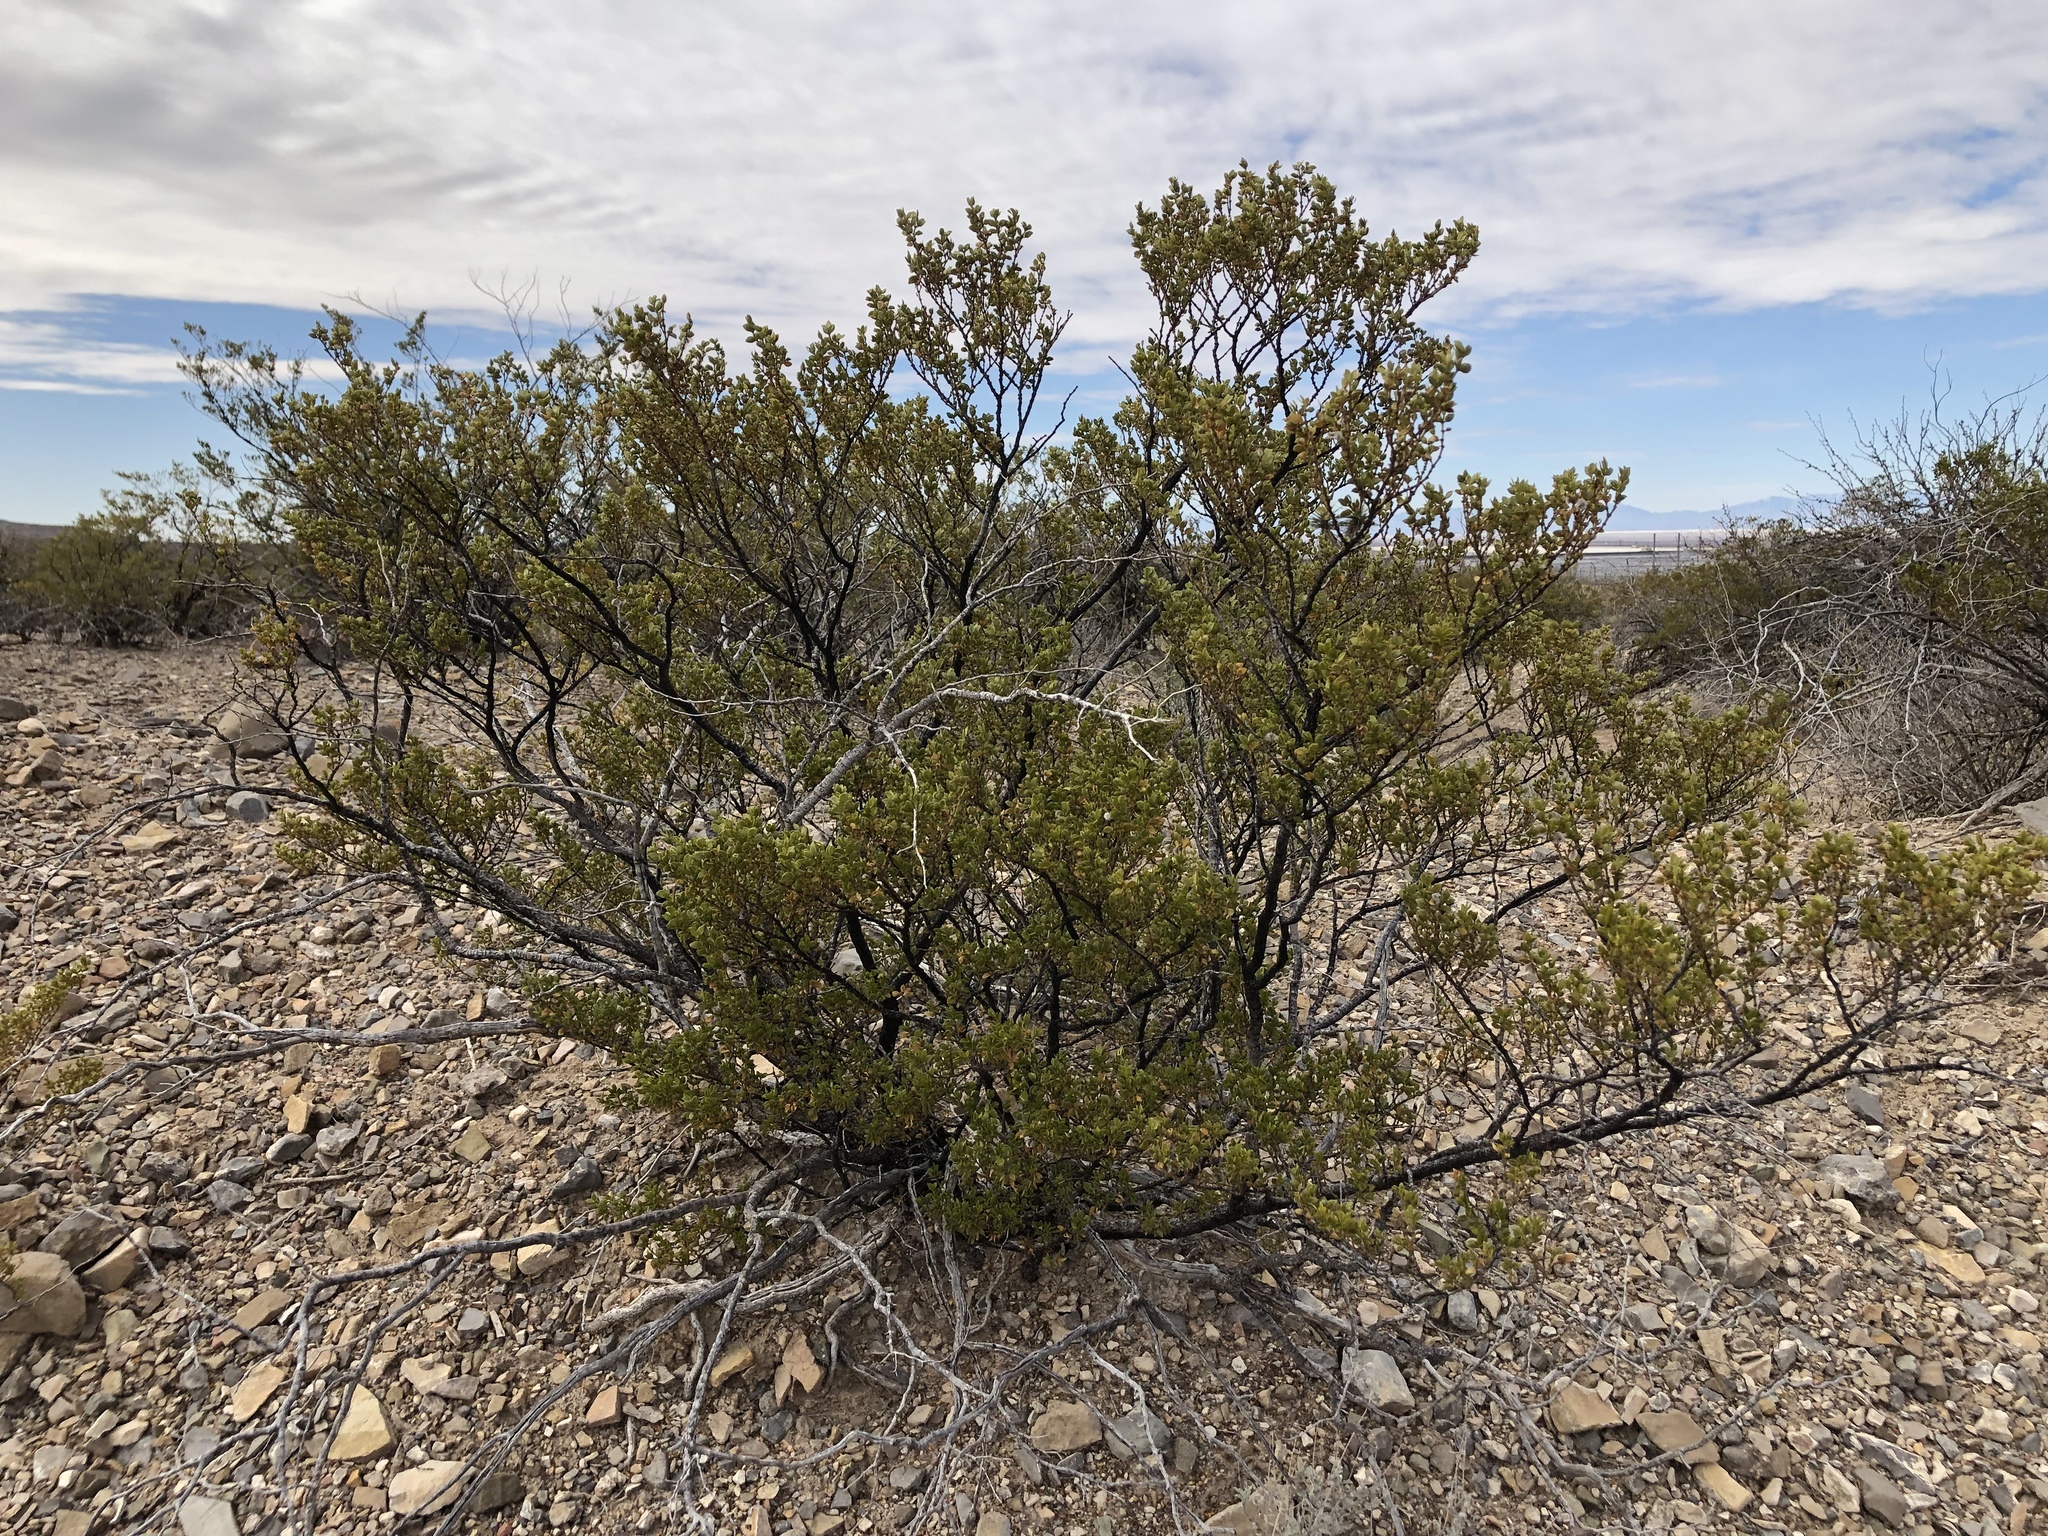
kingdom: Plantae
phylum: Tracheophyta
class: Magnoliopsida
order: Zygophyllales
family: Zygophyllaceae
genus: Larrea
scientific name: Larrea tridentata
